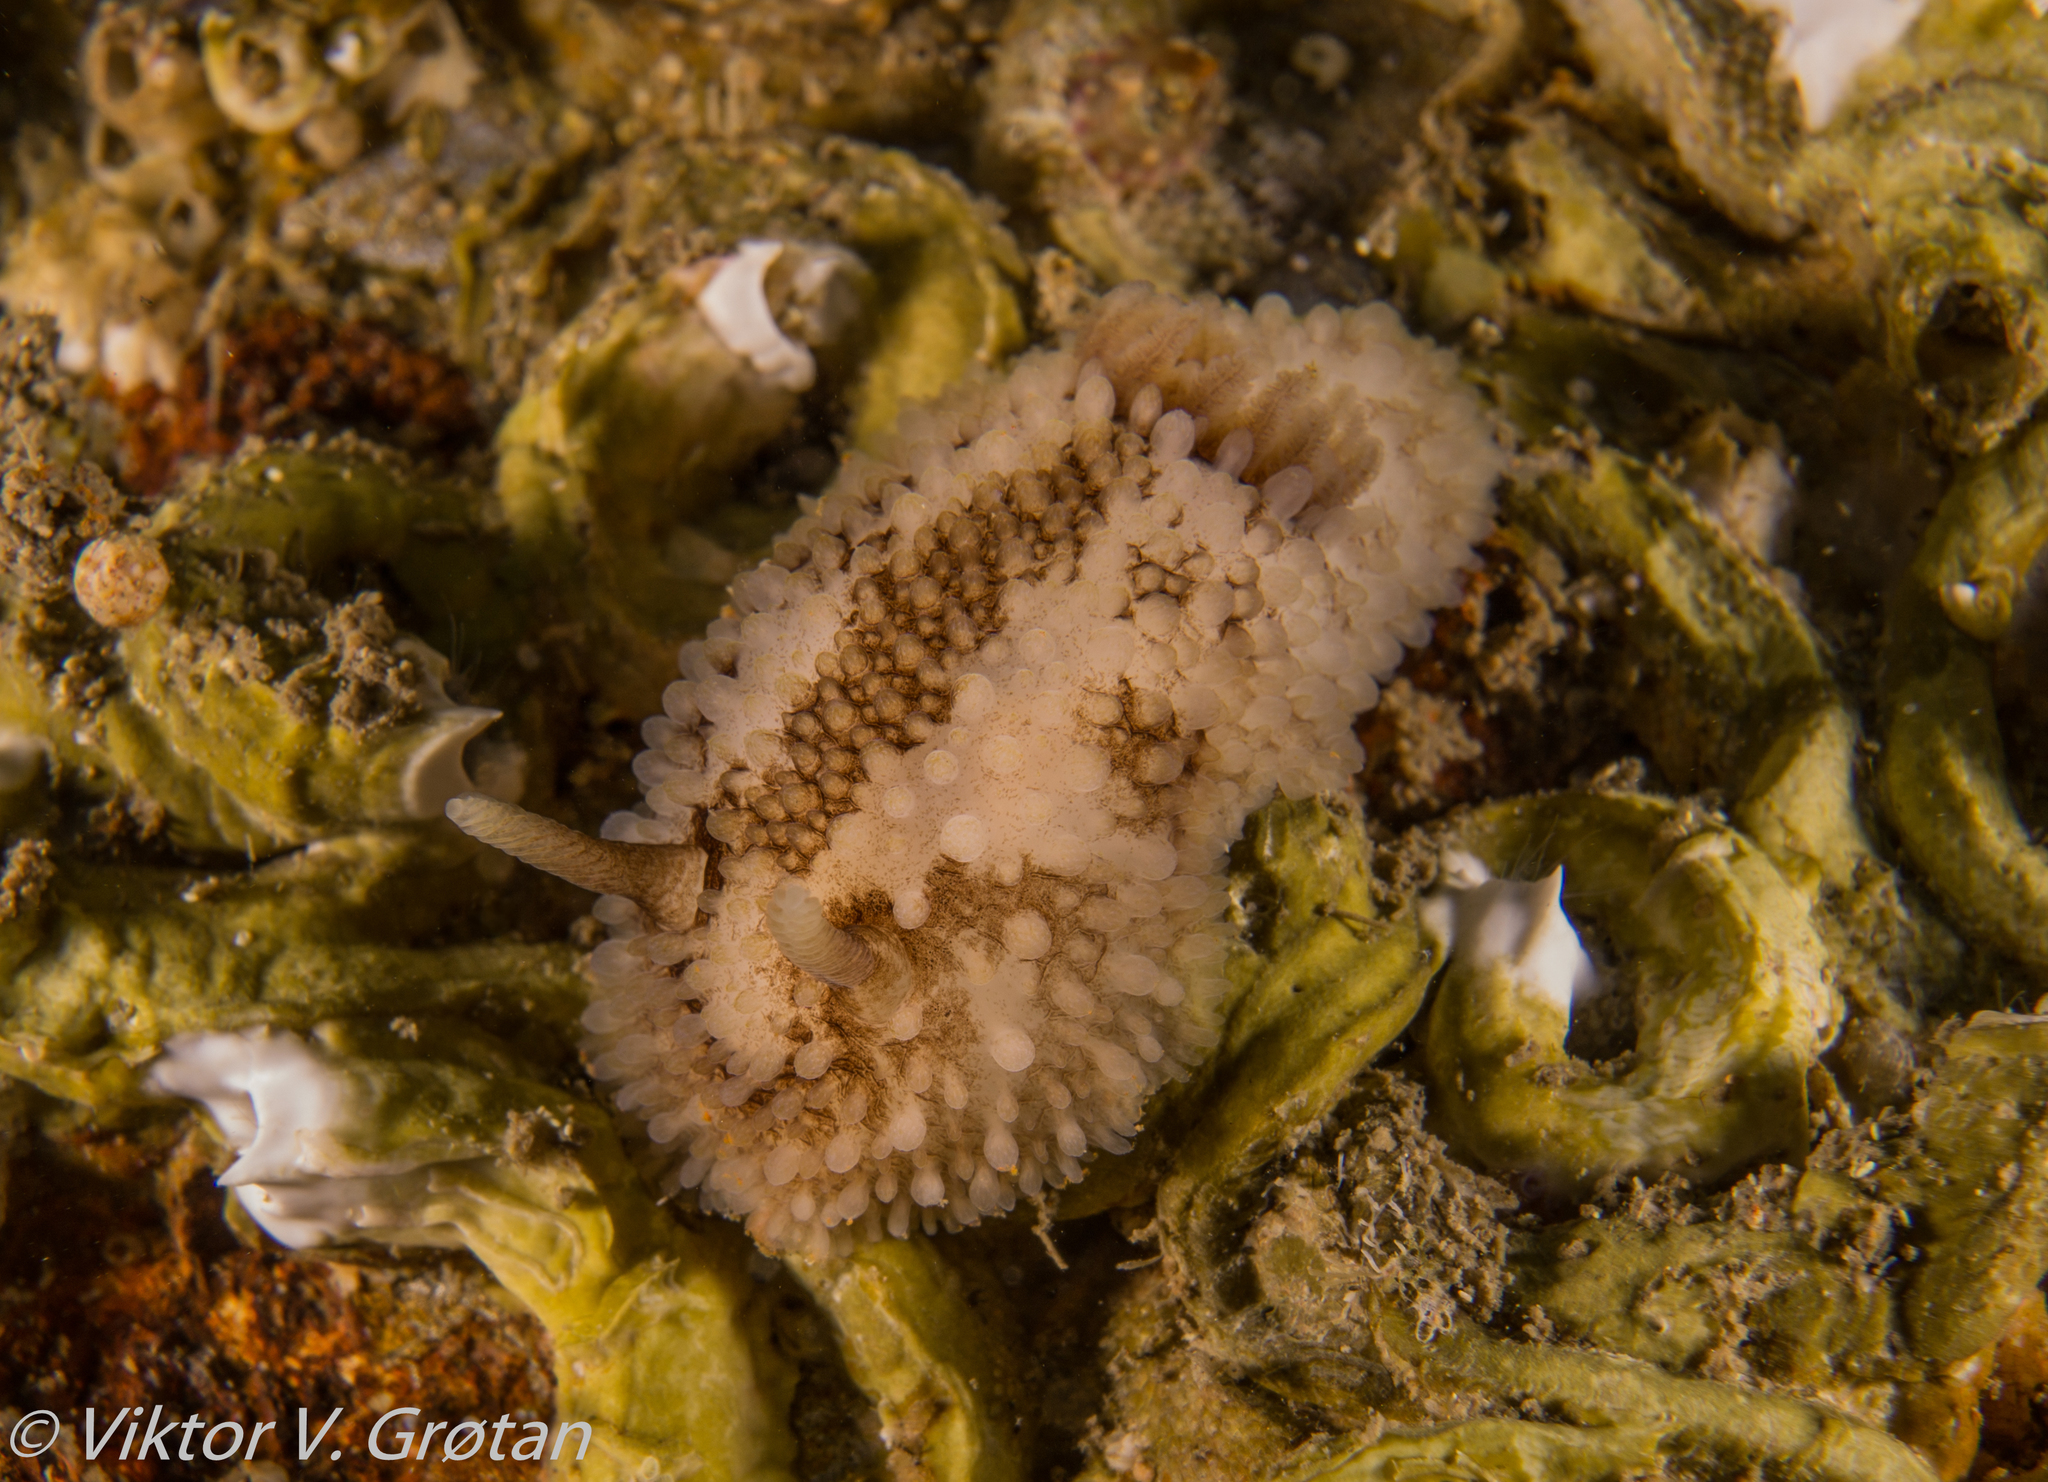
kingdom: Animalia
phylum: Mollusca
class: Gastropoda
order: Nudibranchia
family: Onchidorididae
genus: Onchidoris
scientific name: Onchidoris bilamellata
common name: Barnacle-eating onchidoris
